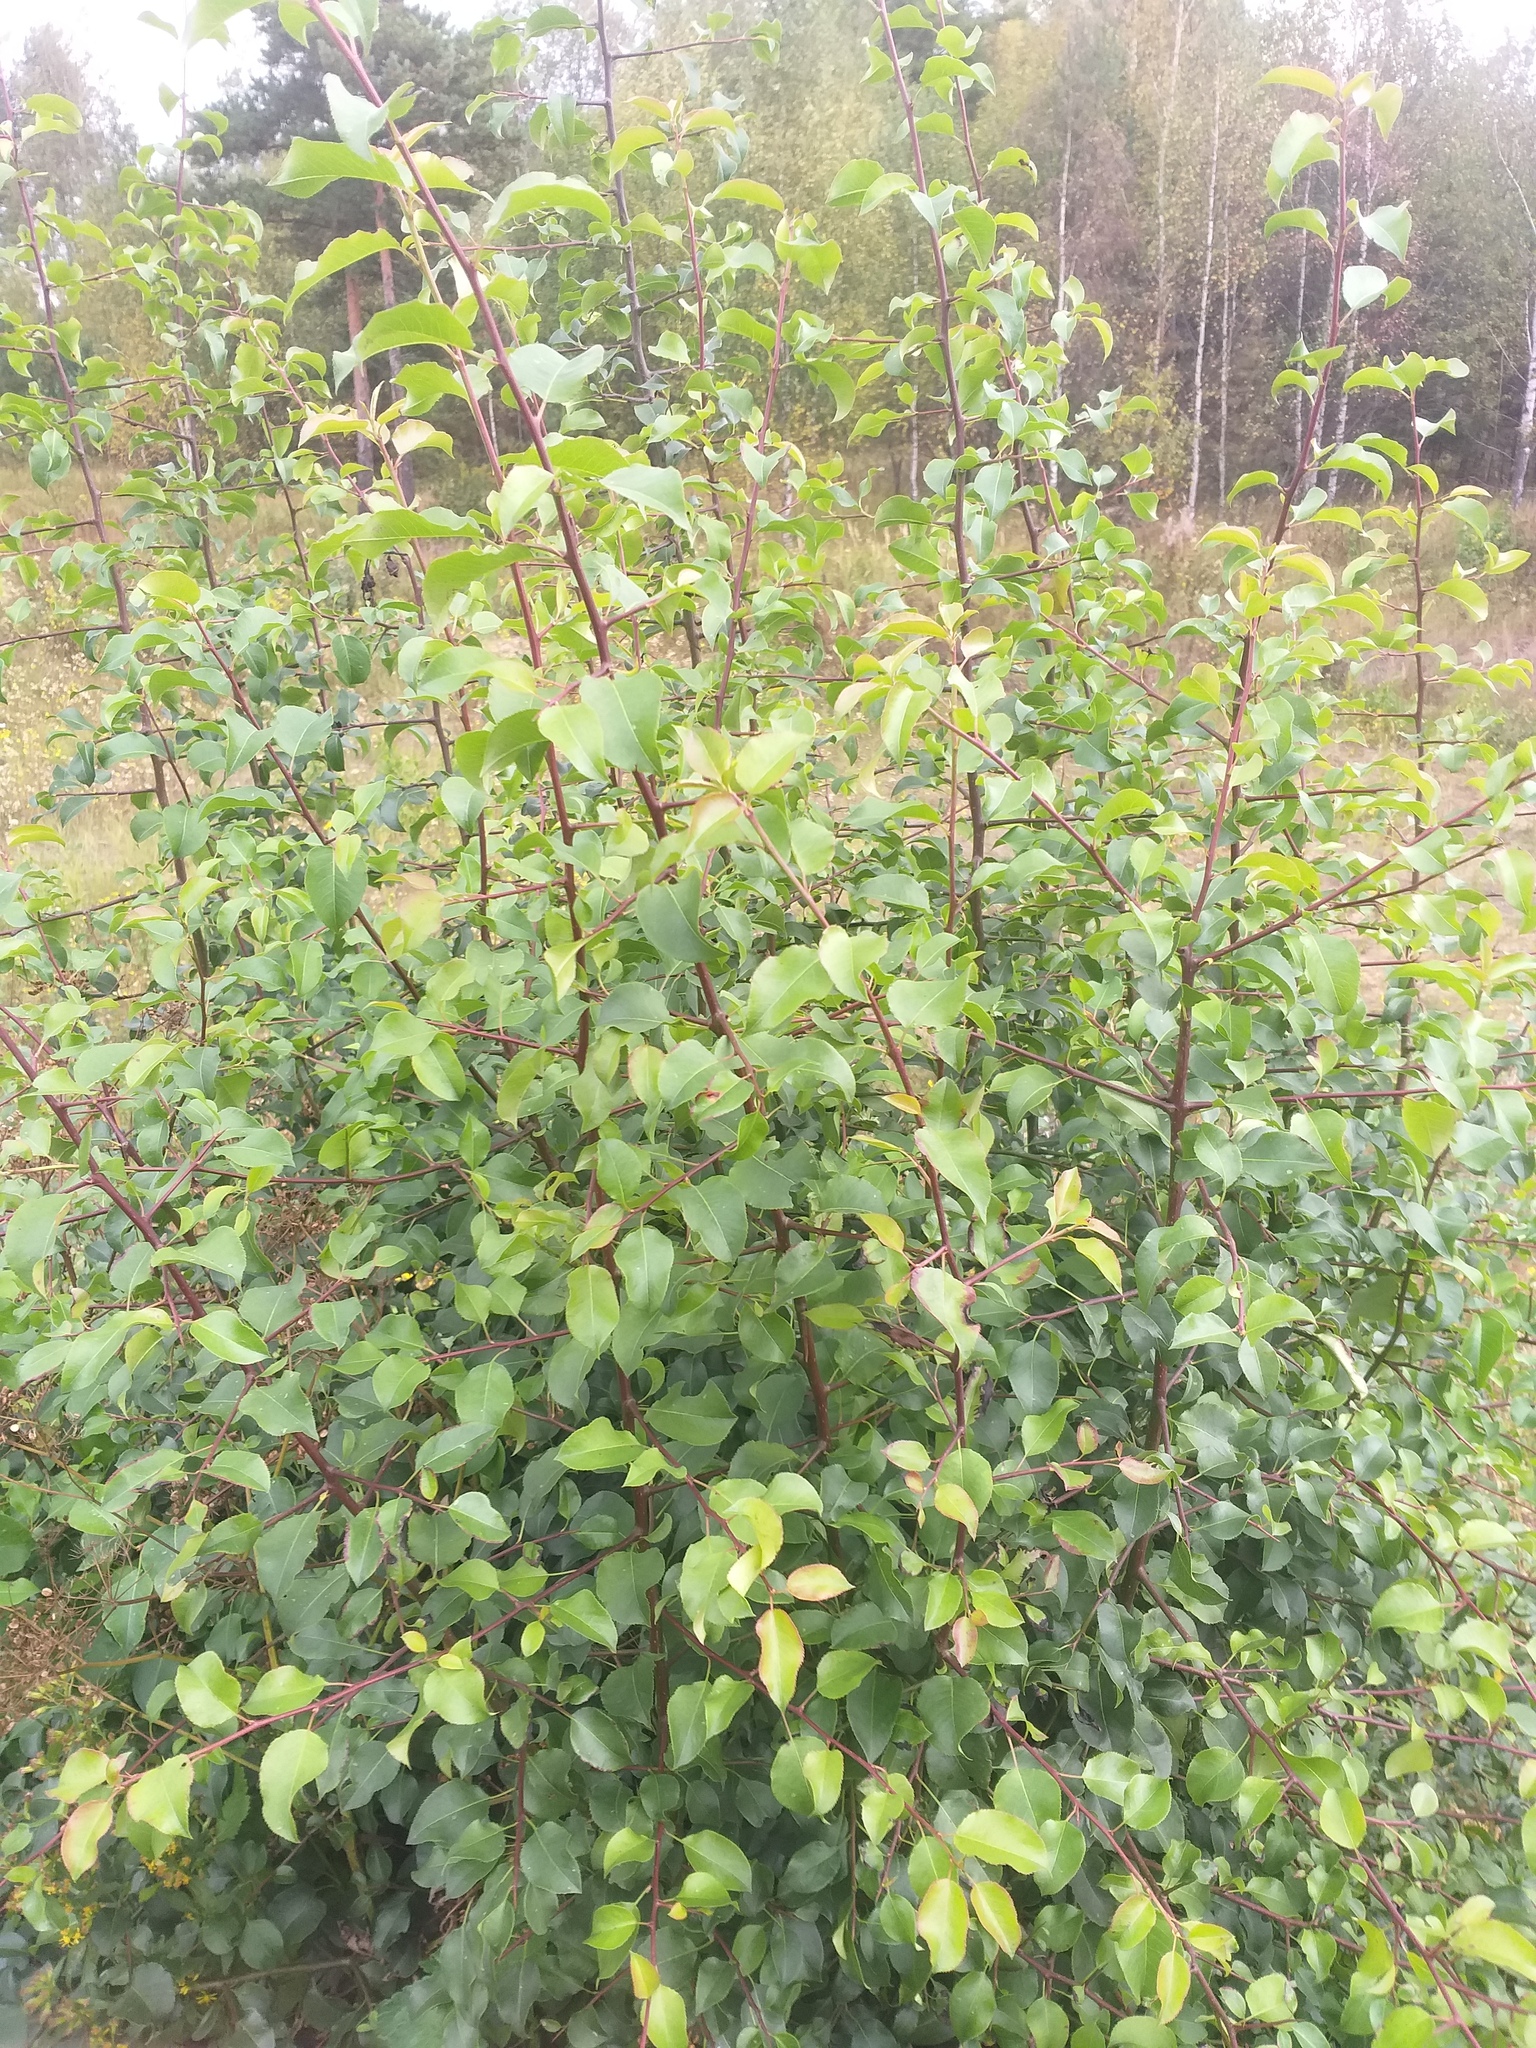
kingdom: Plantae
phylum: Tracheophyta
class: Magnoliopsida
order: Rosales
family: Rosaceae
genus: Pyrus
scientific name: Pyrus communis
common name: Pear
